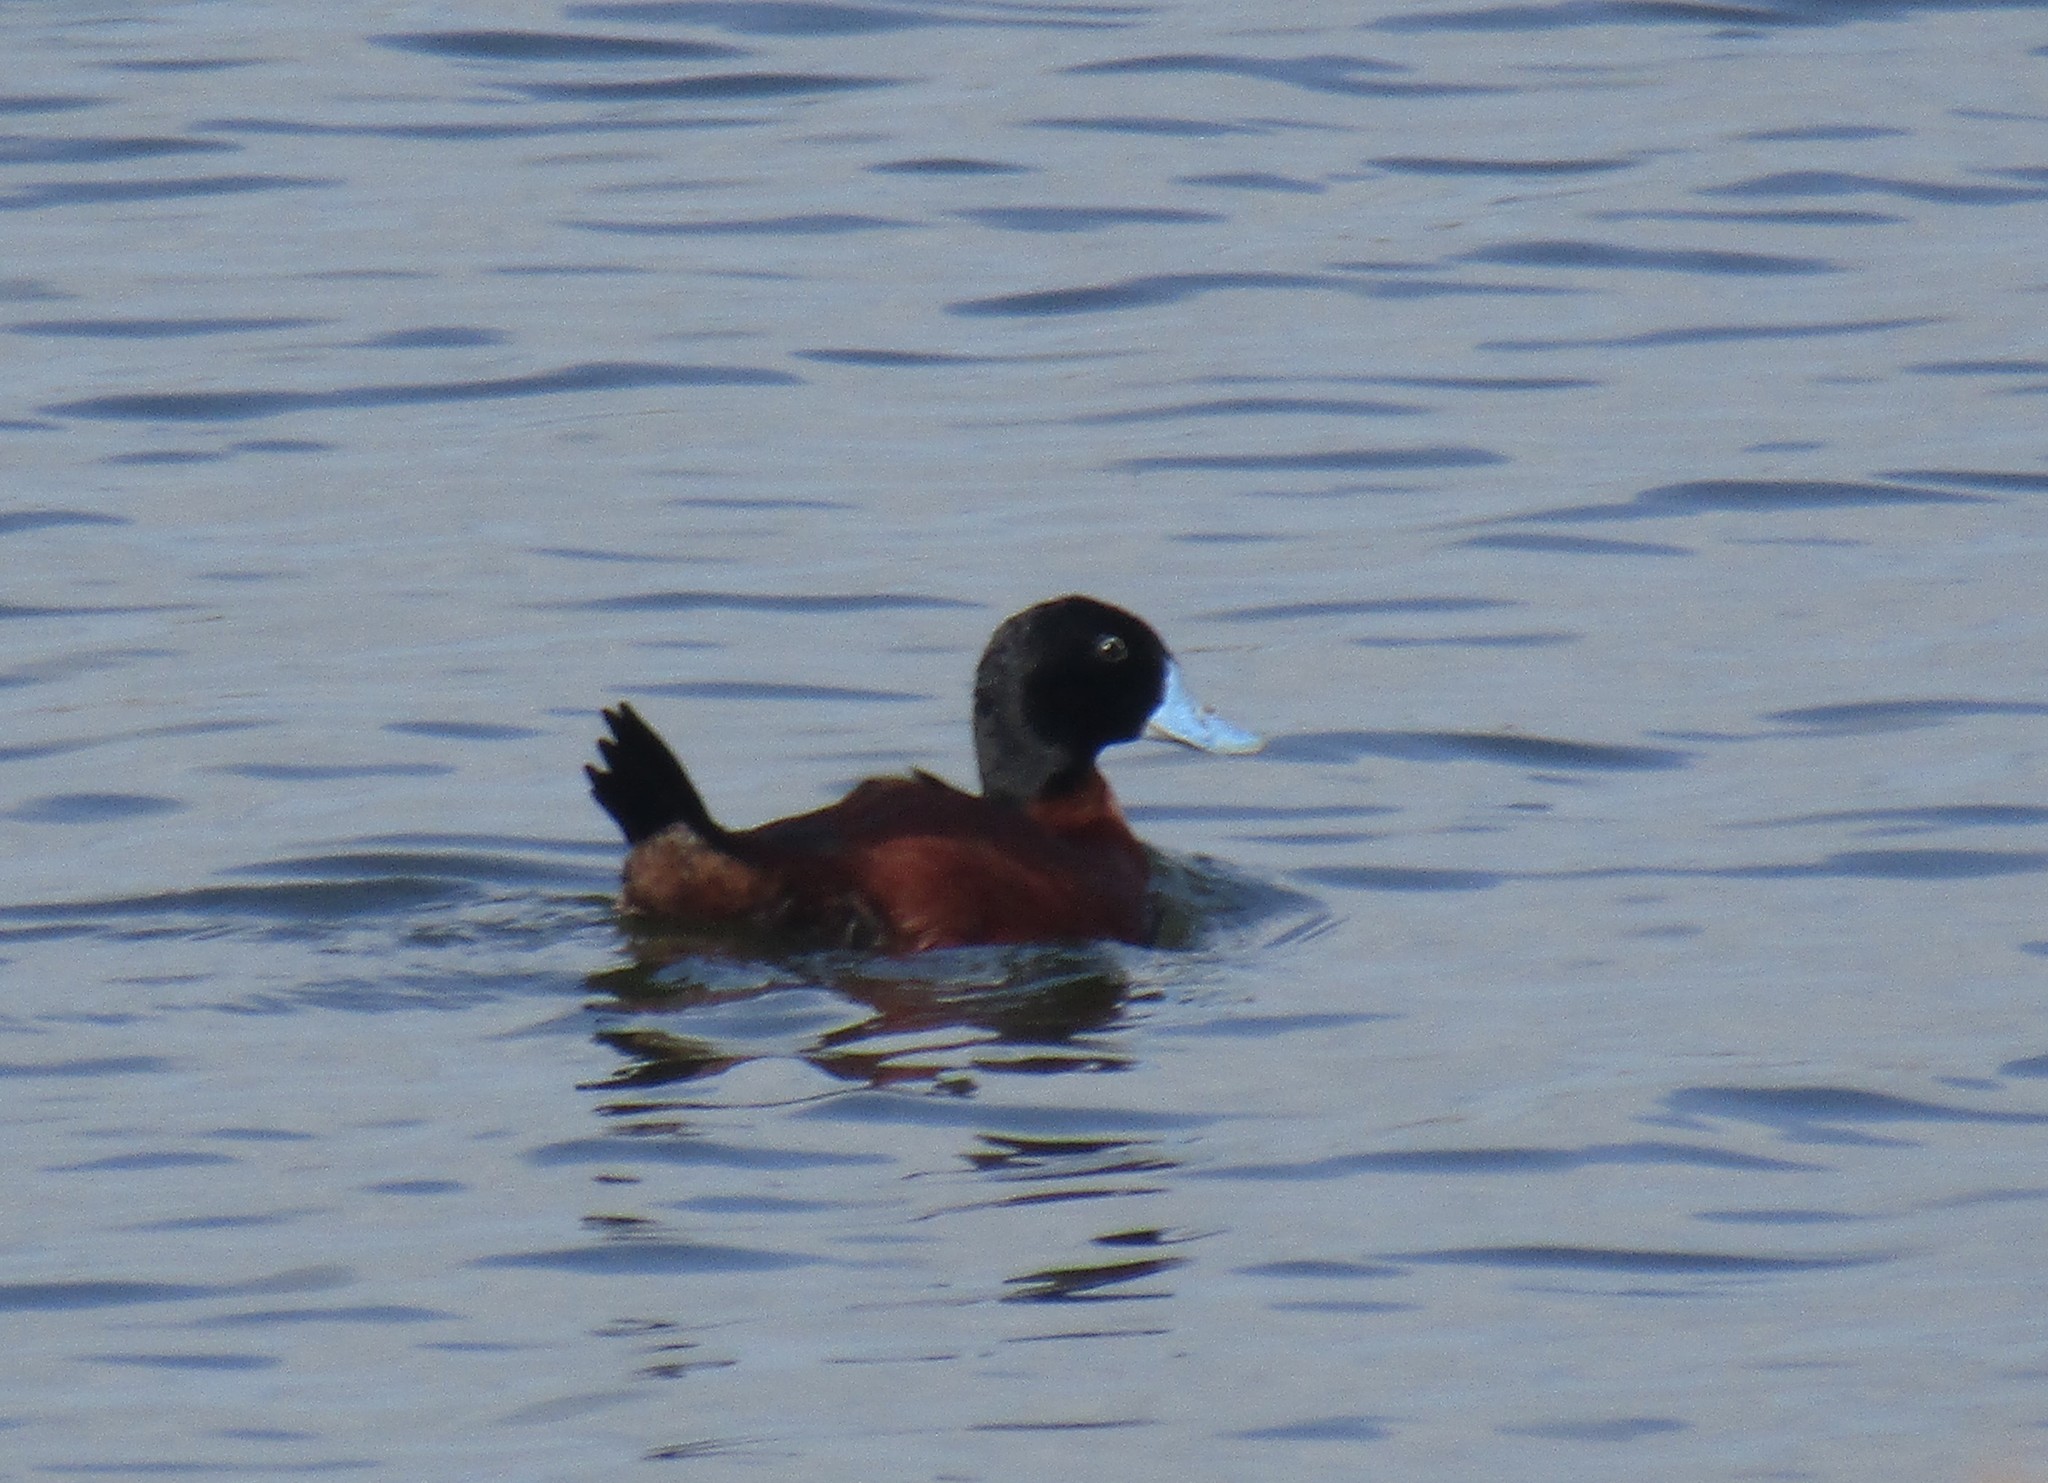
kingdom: Animalia
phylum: Chordata
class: Aves
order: Anseriformes
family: Anatidae
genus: Oxyura
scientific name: Oxyura maccoa
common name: Maccoa duck
